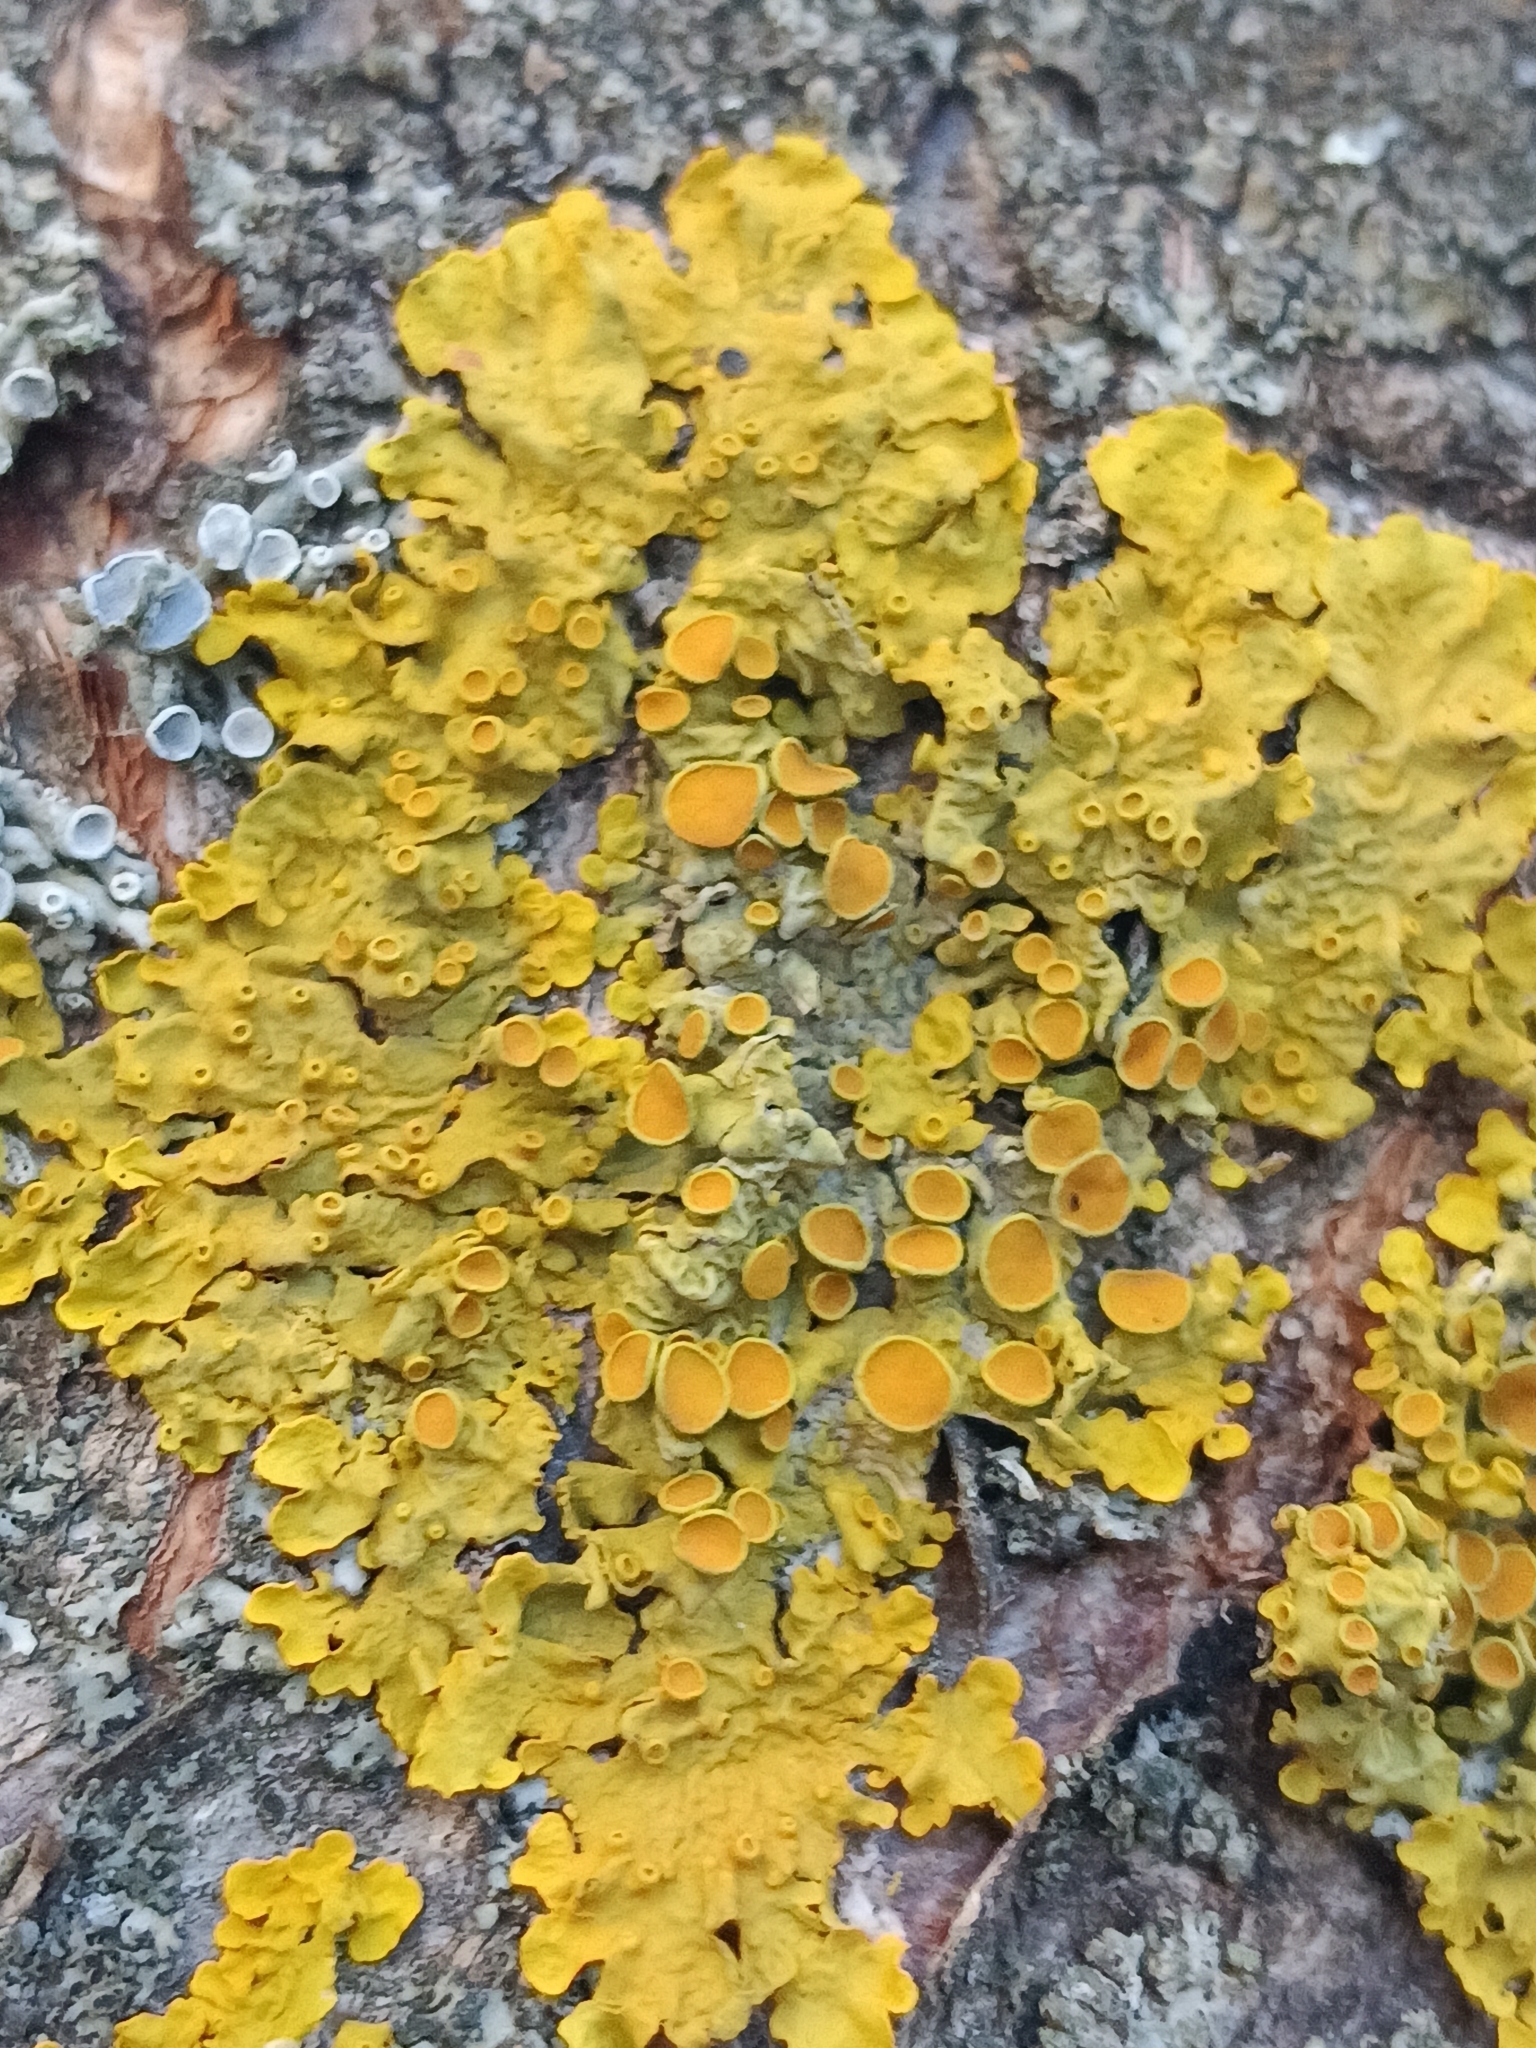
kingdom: Fungi
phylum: Ascomycota
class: Lecanoromycetes
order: Teloschistales
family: Teloschistaceae
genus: Xanthoria
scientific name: Xanthoria parietina
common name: Common orange lichen
